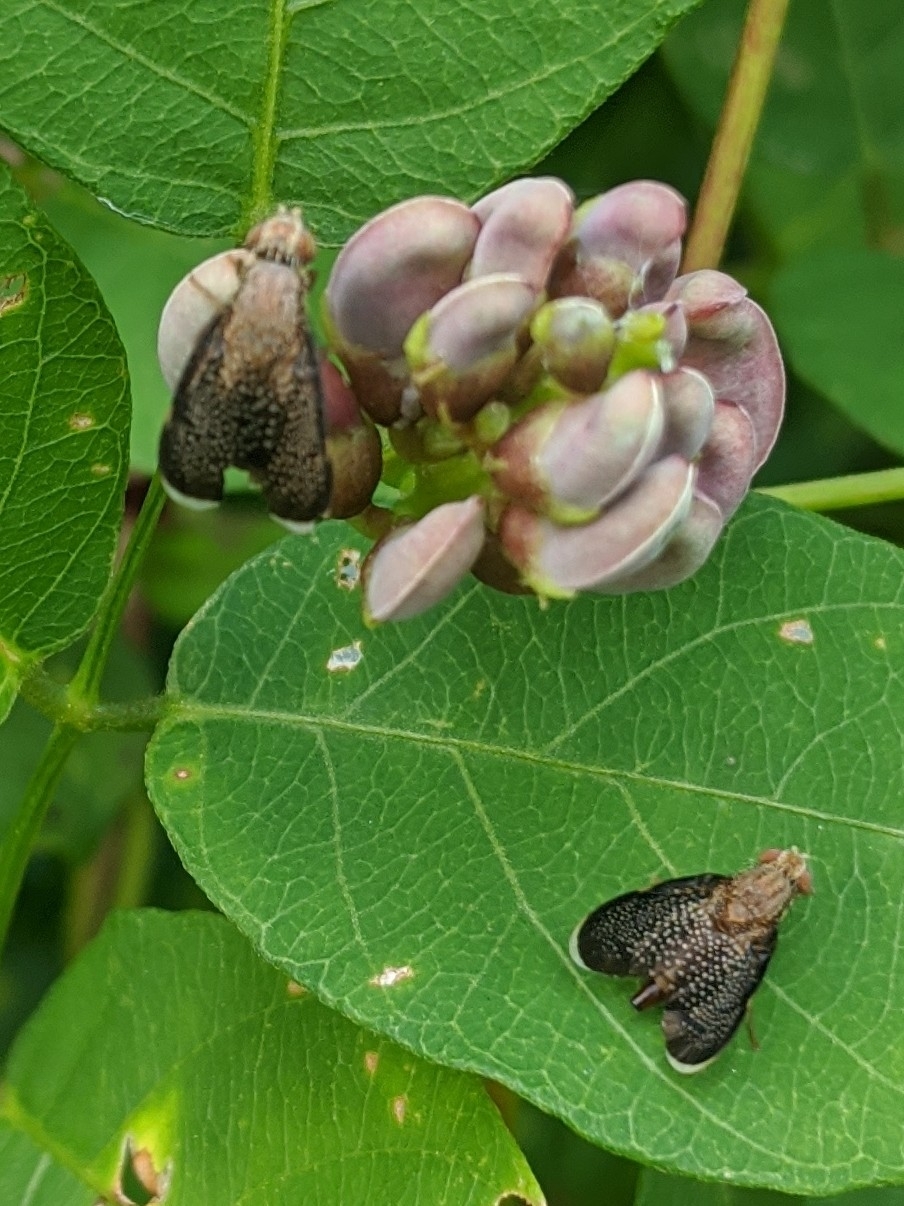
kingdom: Animalia
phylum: Arthropoda
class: Insecta
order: Diptera
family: Tephritidae
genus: Eutreta
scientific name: Eutreta novaeboracensis
